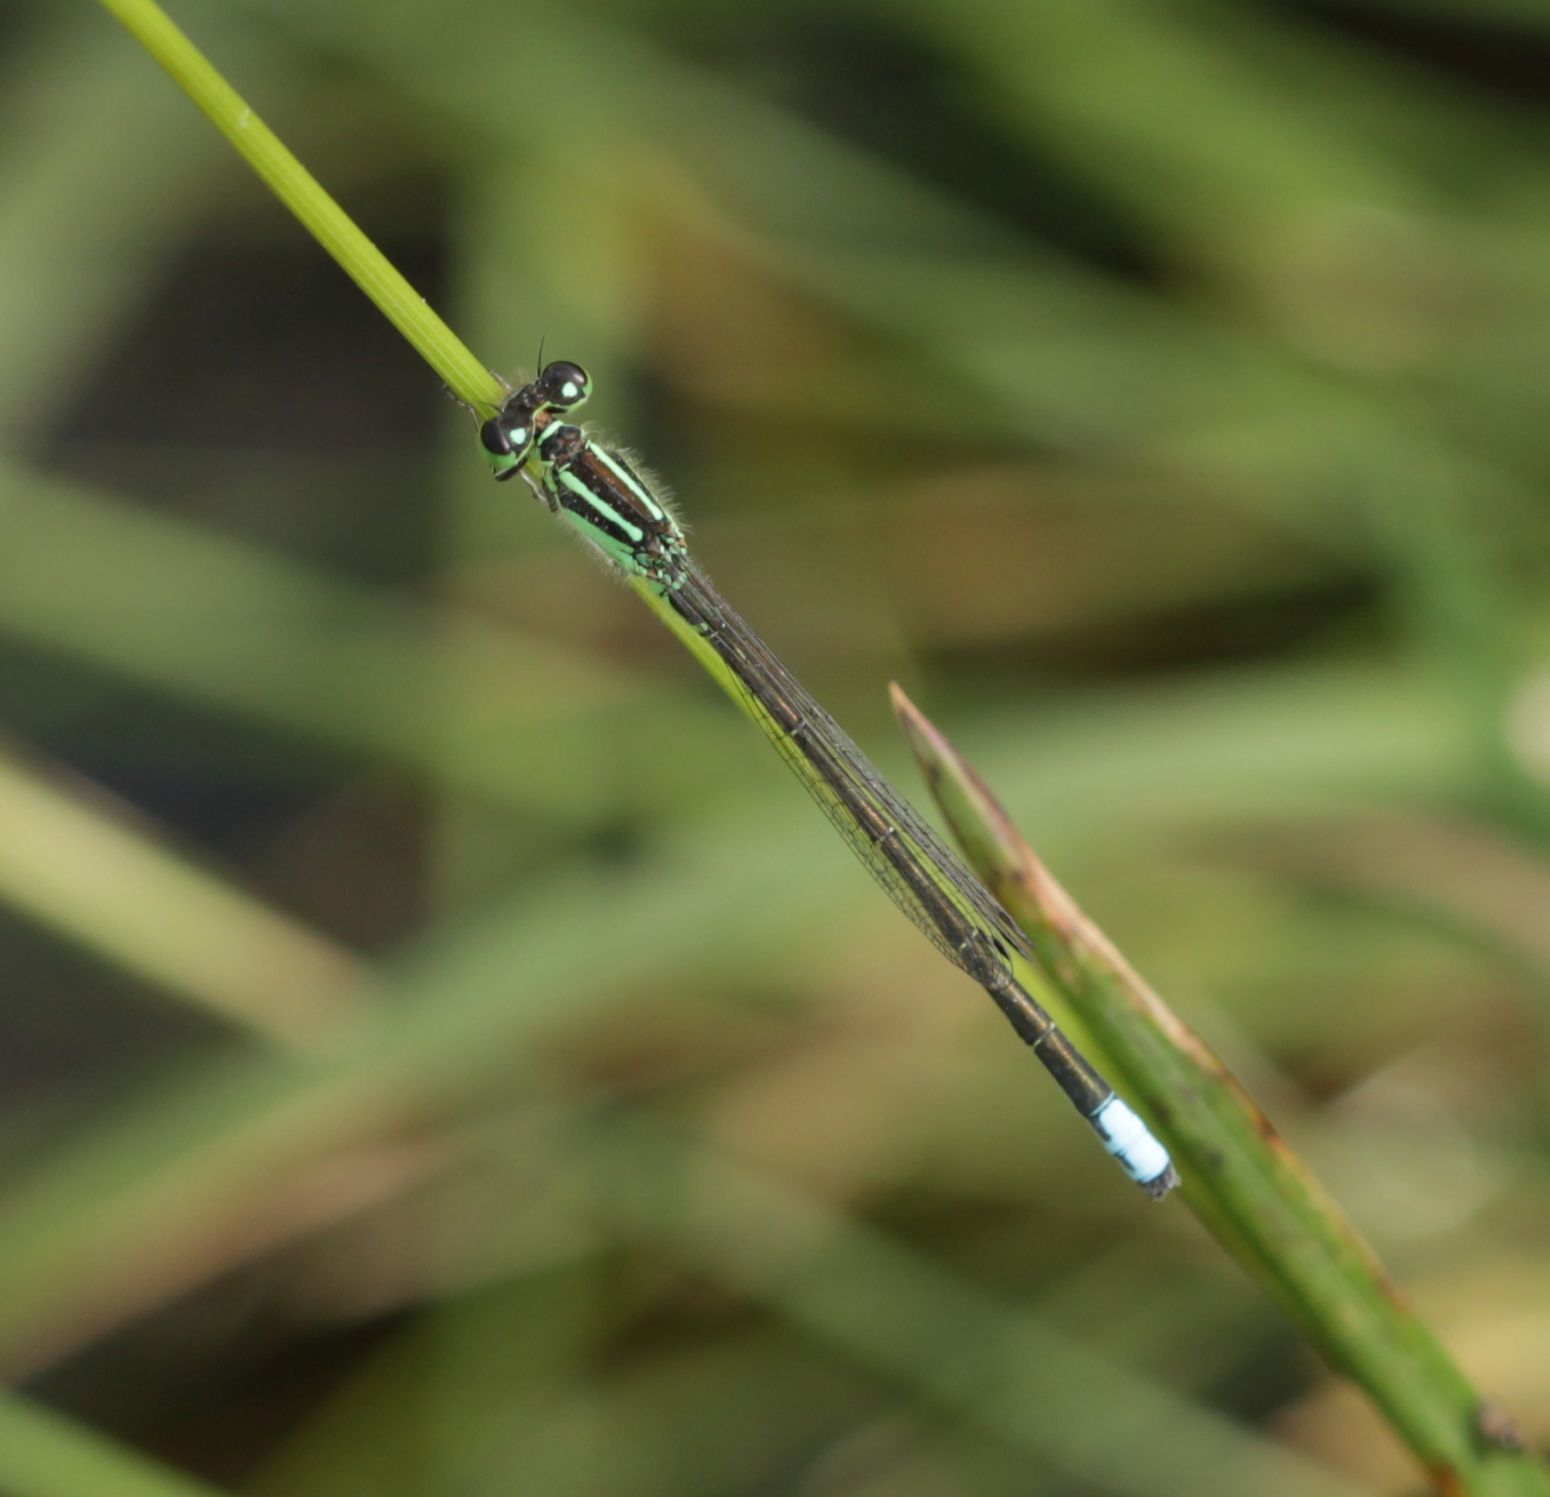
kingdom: Animalia
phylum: Arthropoda
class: Insecta
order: Odonata
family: Coenagrionidae
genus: Ischnura
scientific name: Ischnura verticalis
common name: Eastern forktail
